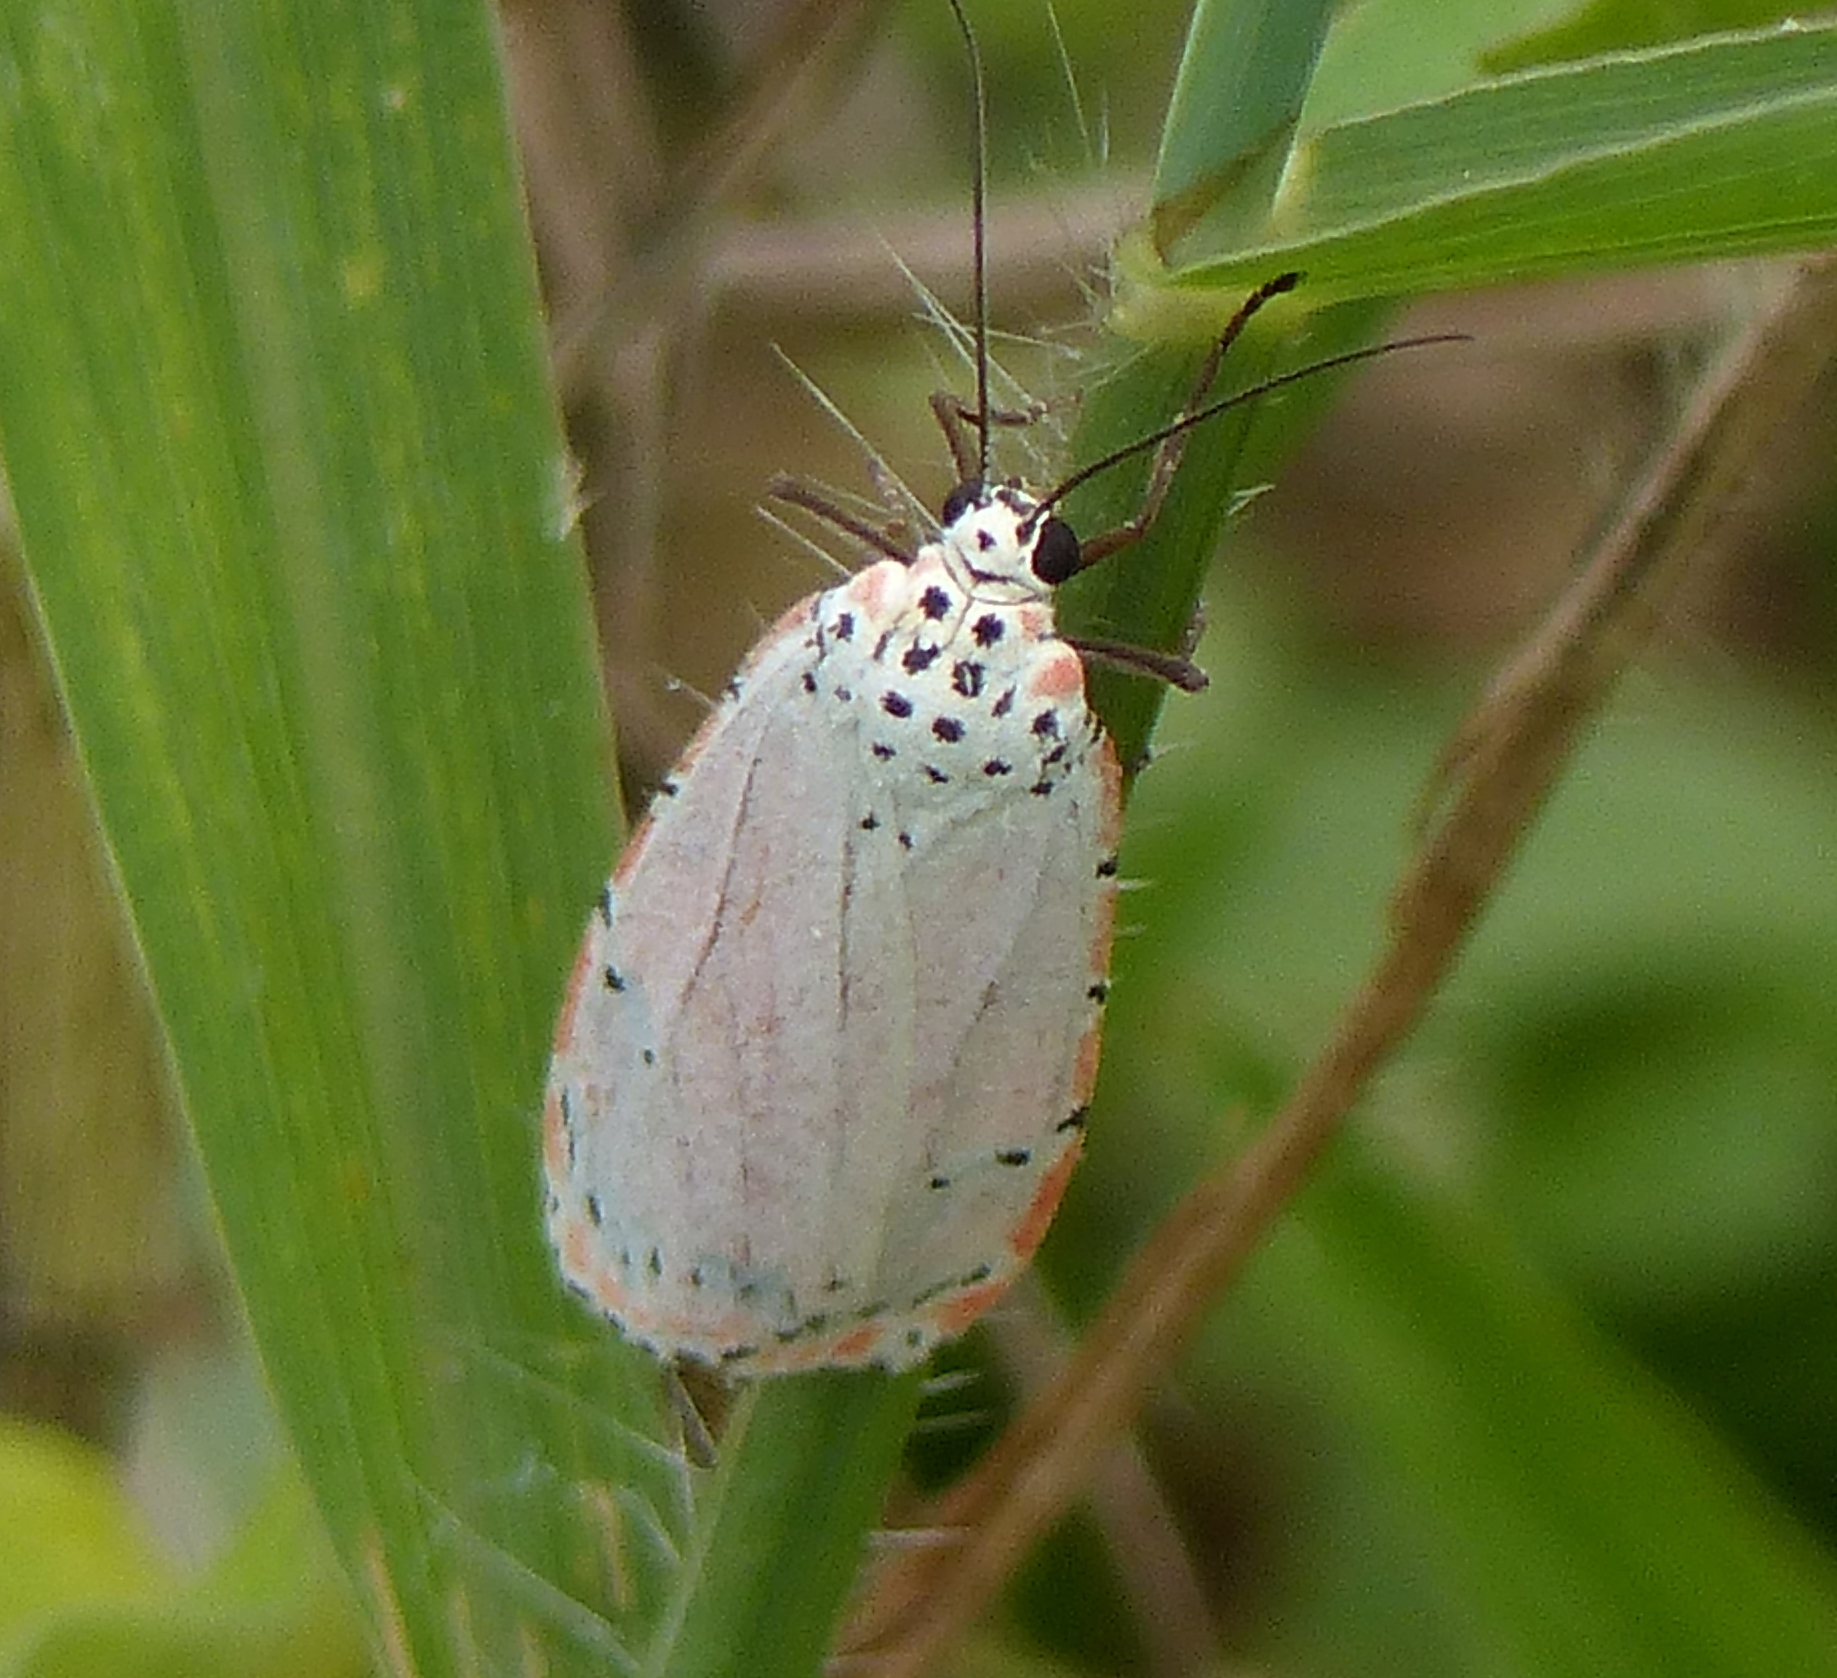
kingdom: Animalia
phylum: Arthropoda
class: Insecta
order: Lepidoptera
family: Erebidae
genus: Utetheisa
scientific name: Utetheisa ornatrix
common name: Beautiful utetheisa
